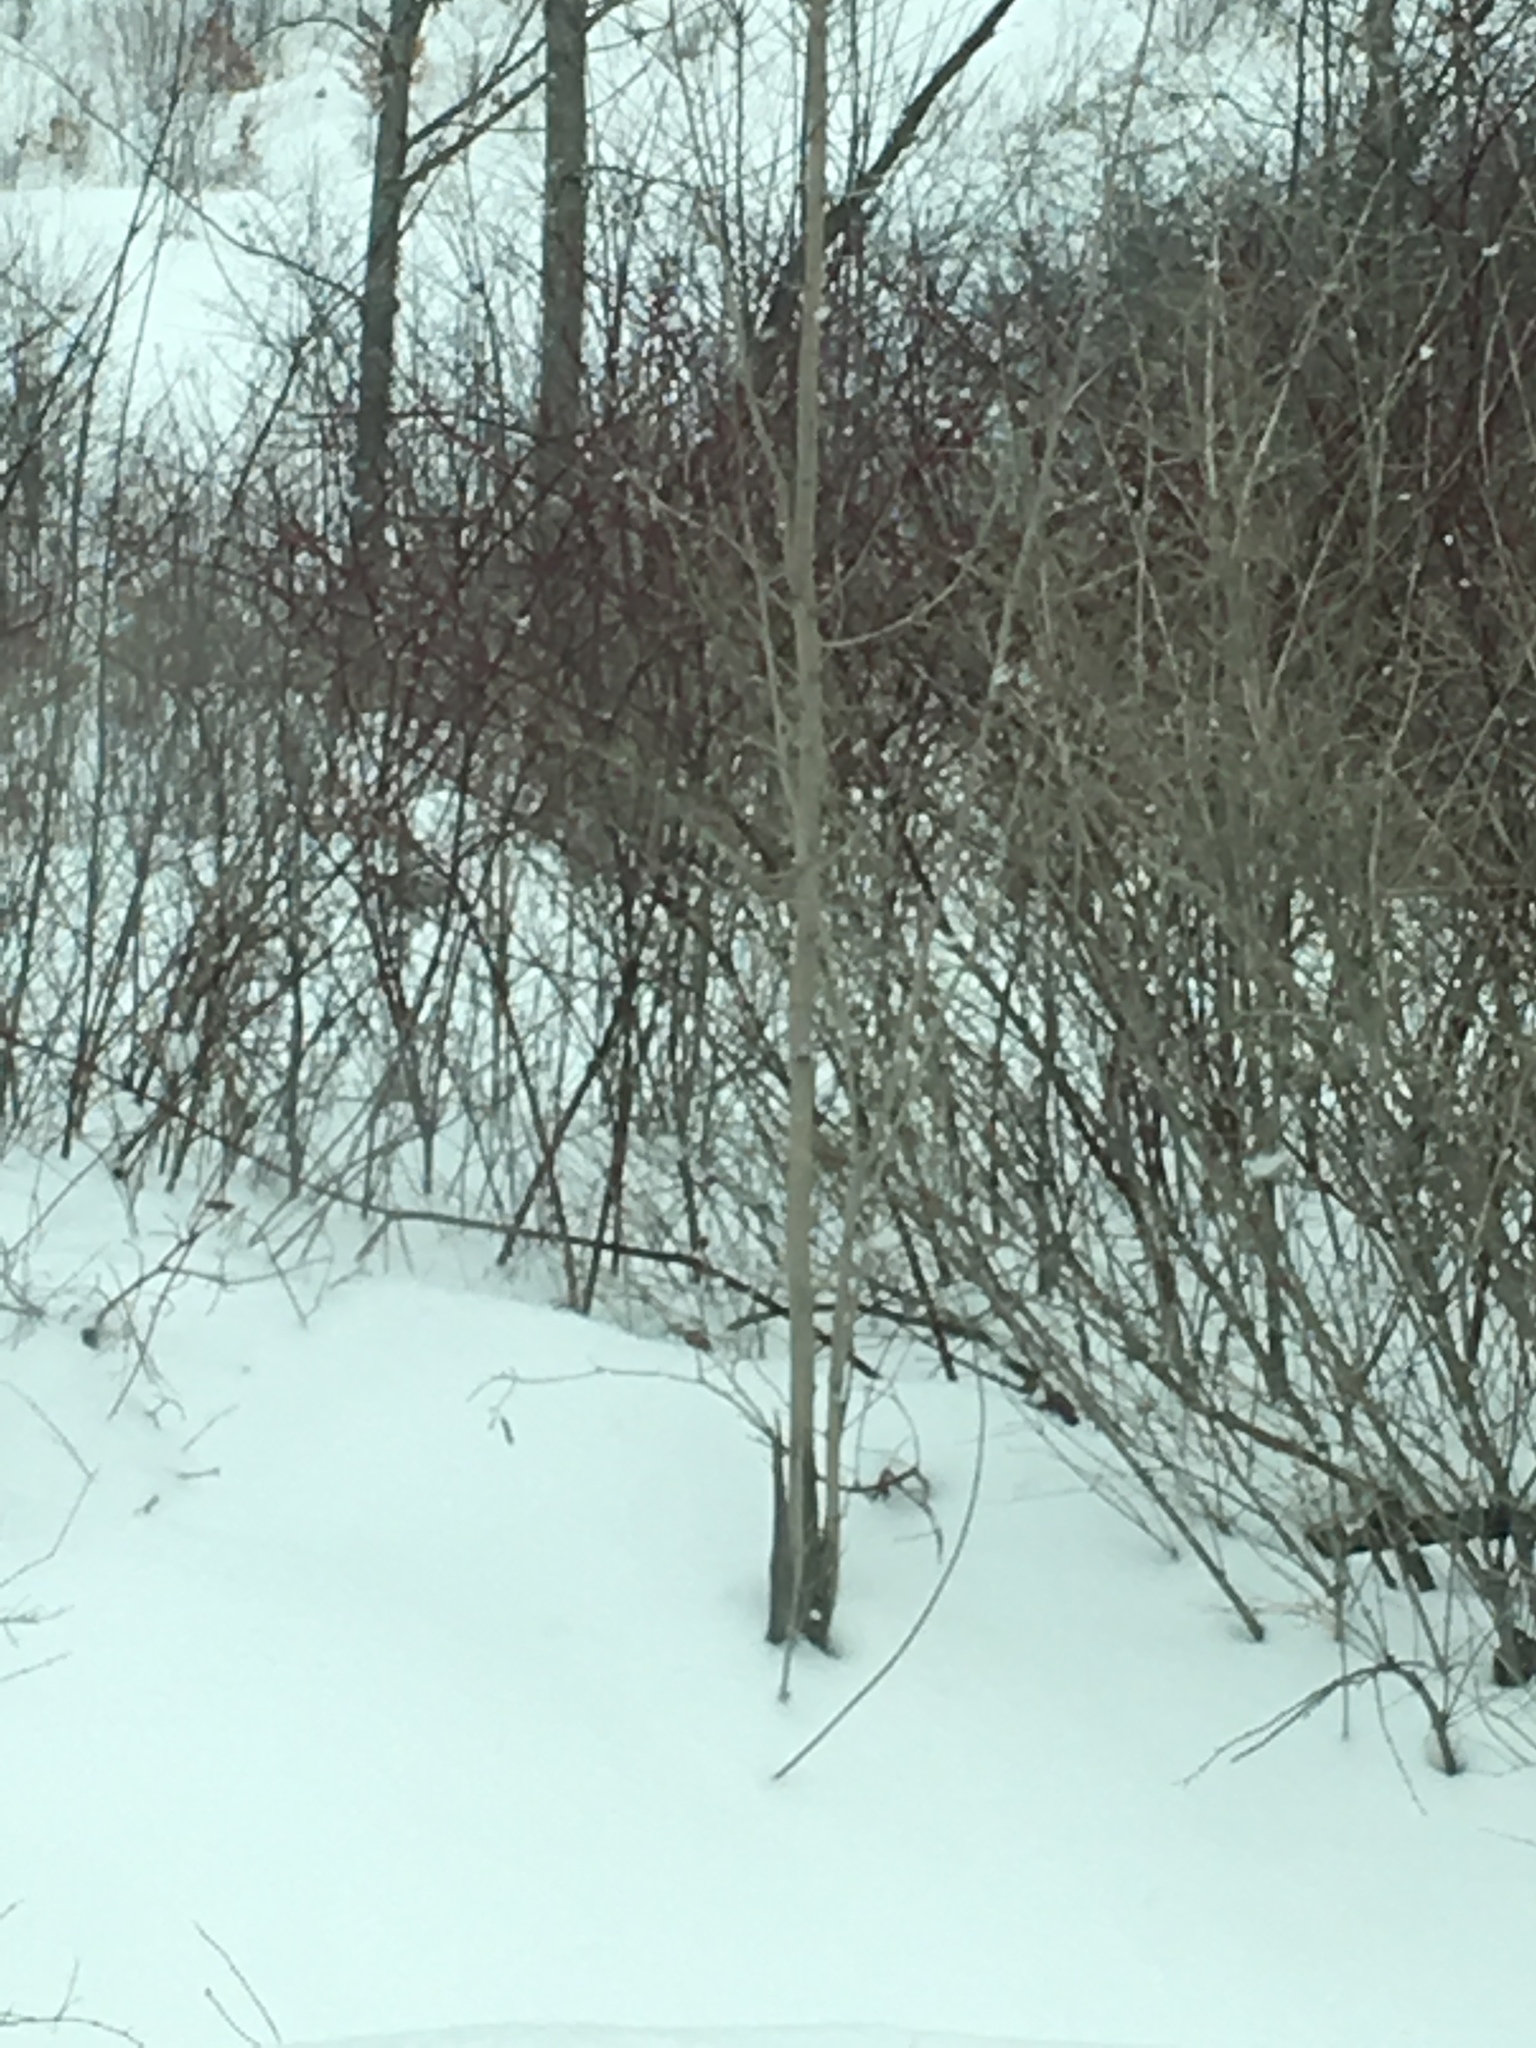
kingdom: Plantae
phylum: Tracheophyta
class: Magnoliopsida
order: Cornales
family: Cornaceae
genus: Cornus
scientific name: Cornus sericea
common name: Red-osier dogwood
